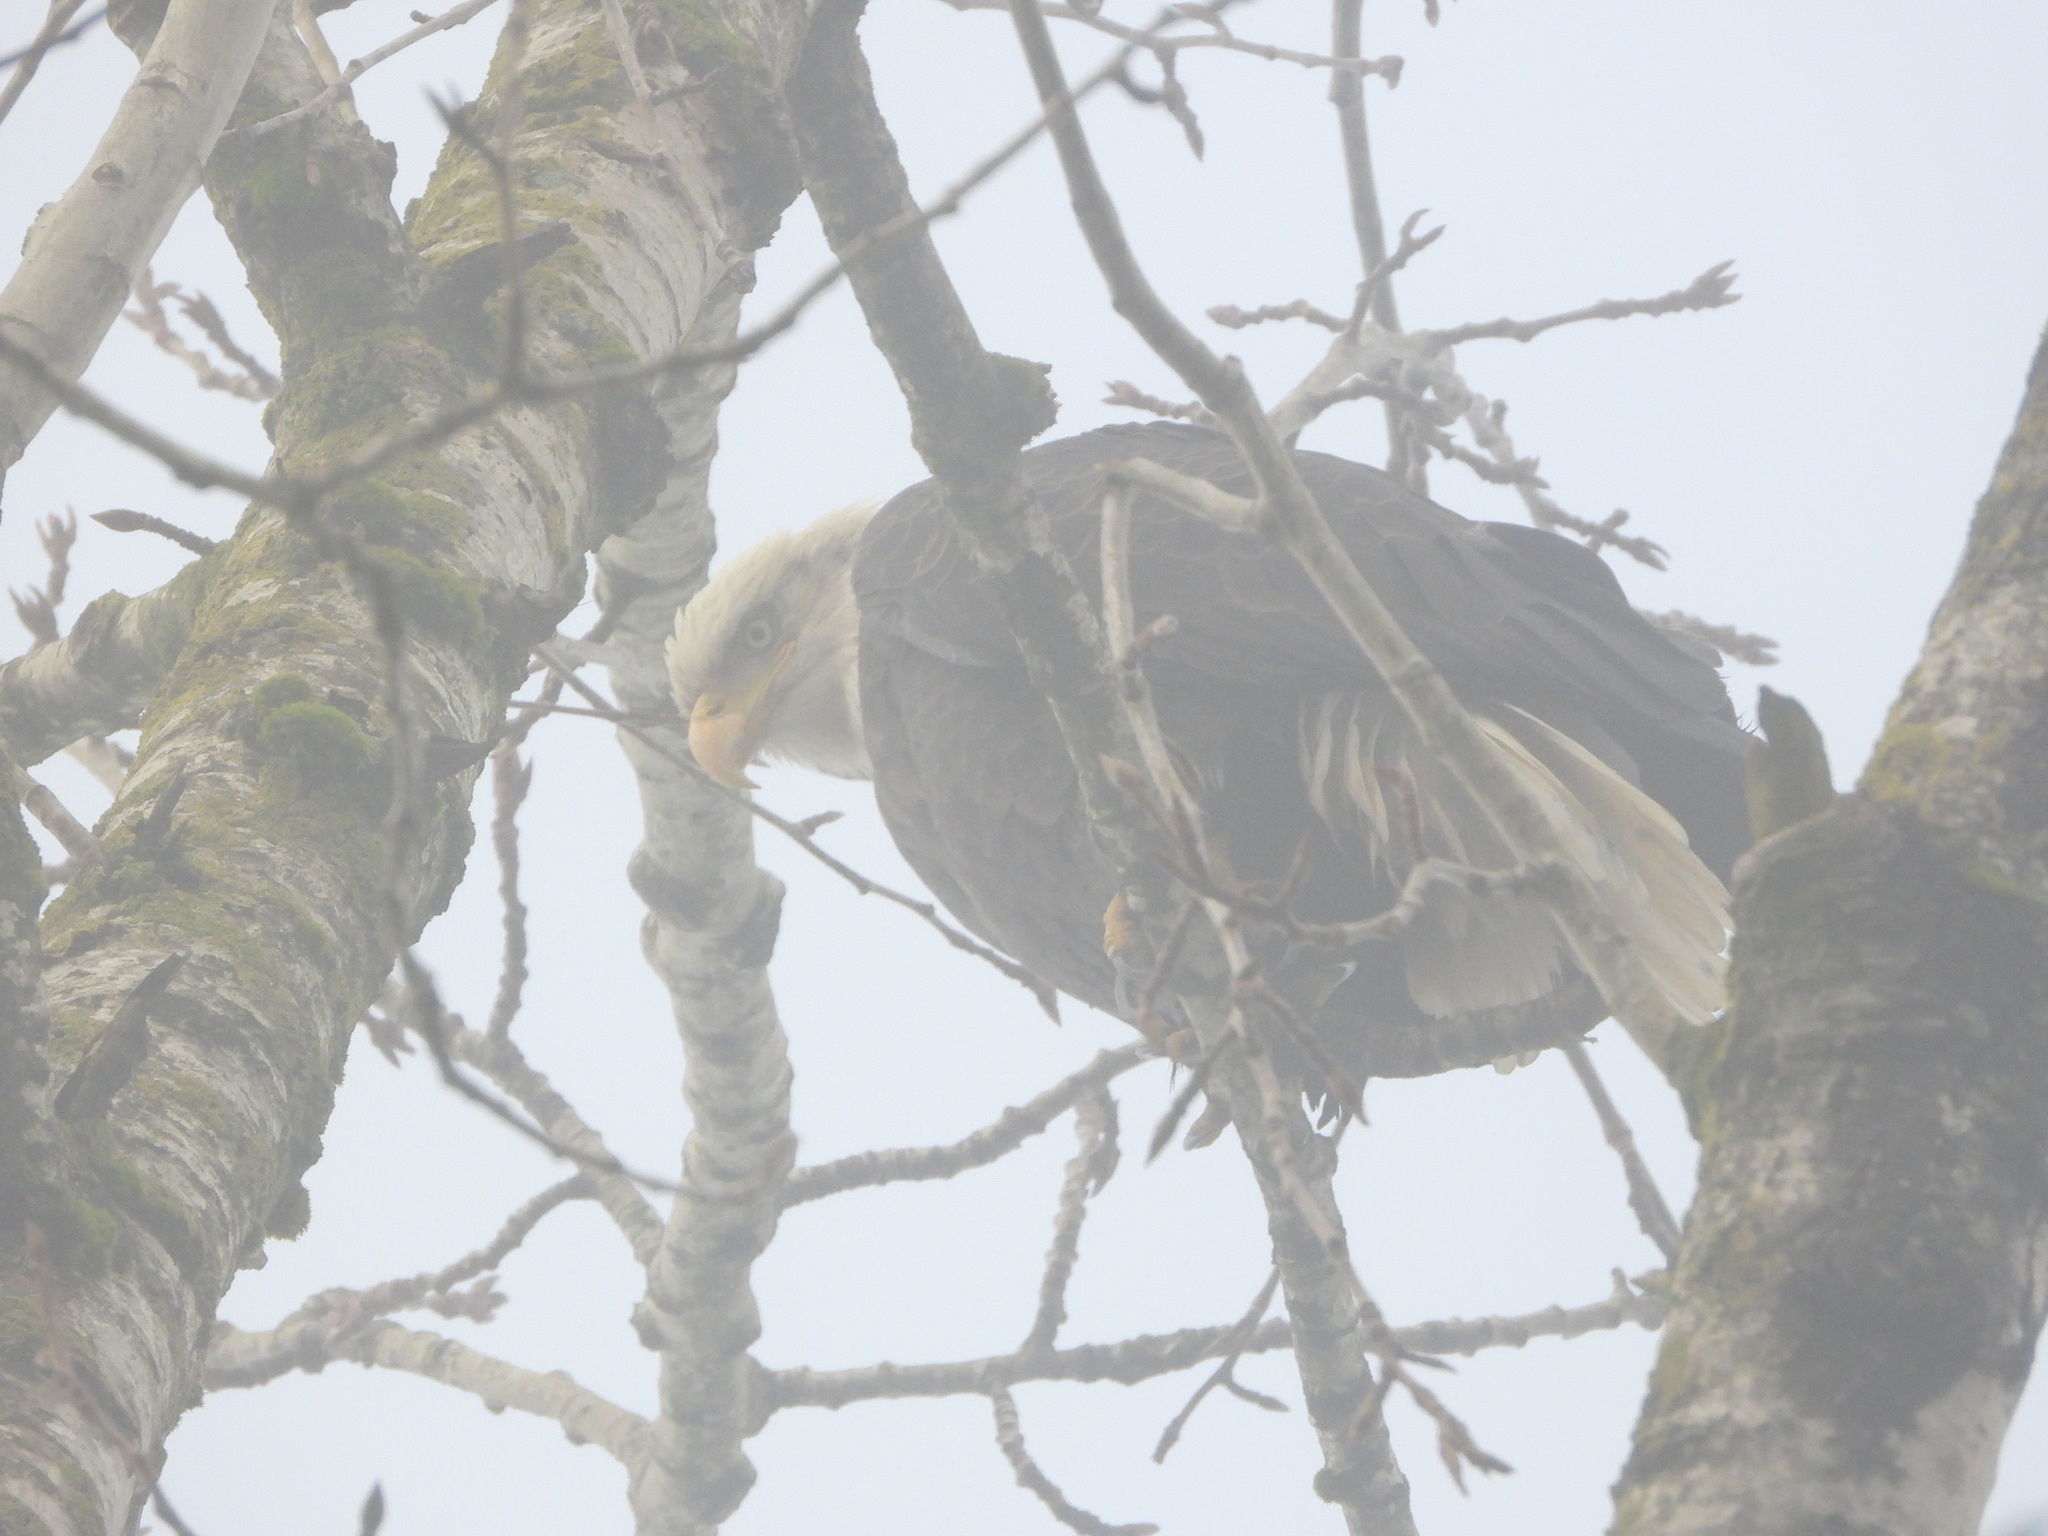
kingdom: Animalia
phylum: Chordata
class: Aves
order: Accipitriformes
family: Accipitridae
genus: Haliaeetus
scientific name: Haliaeetus leucocephalus
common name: Bald eagle
